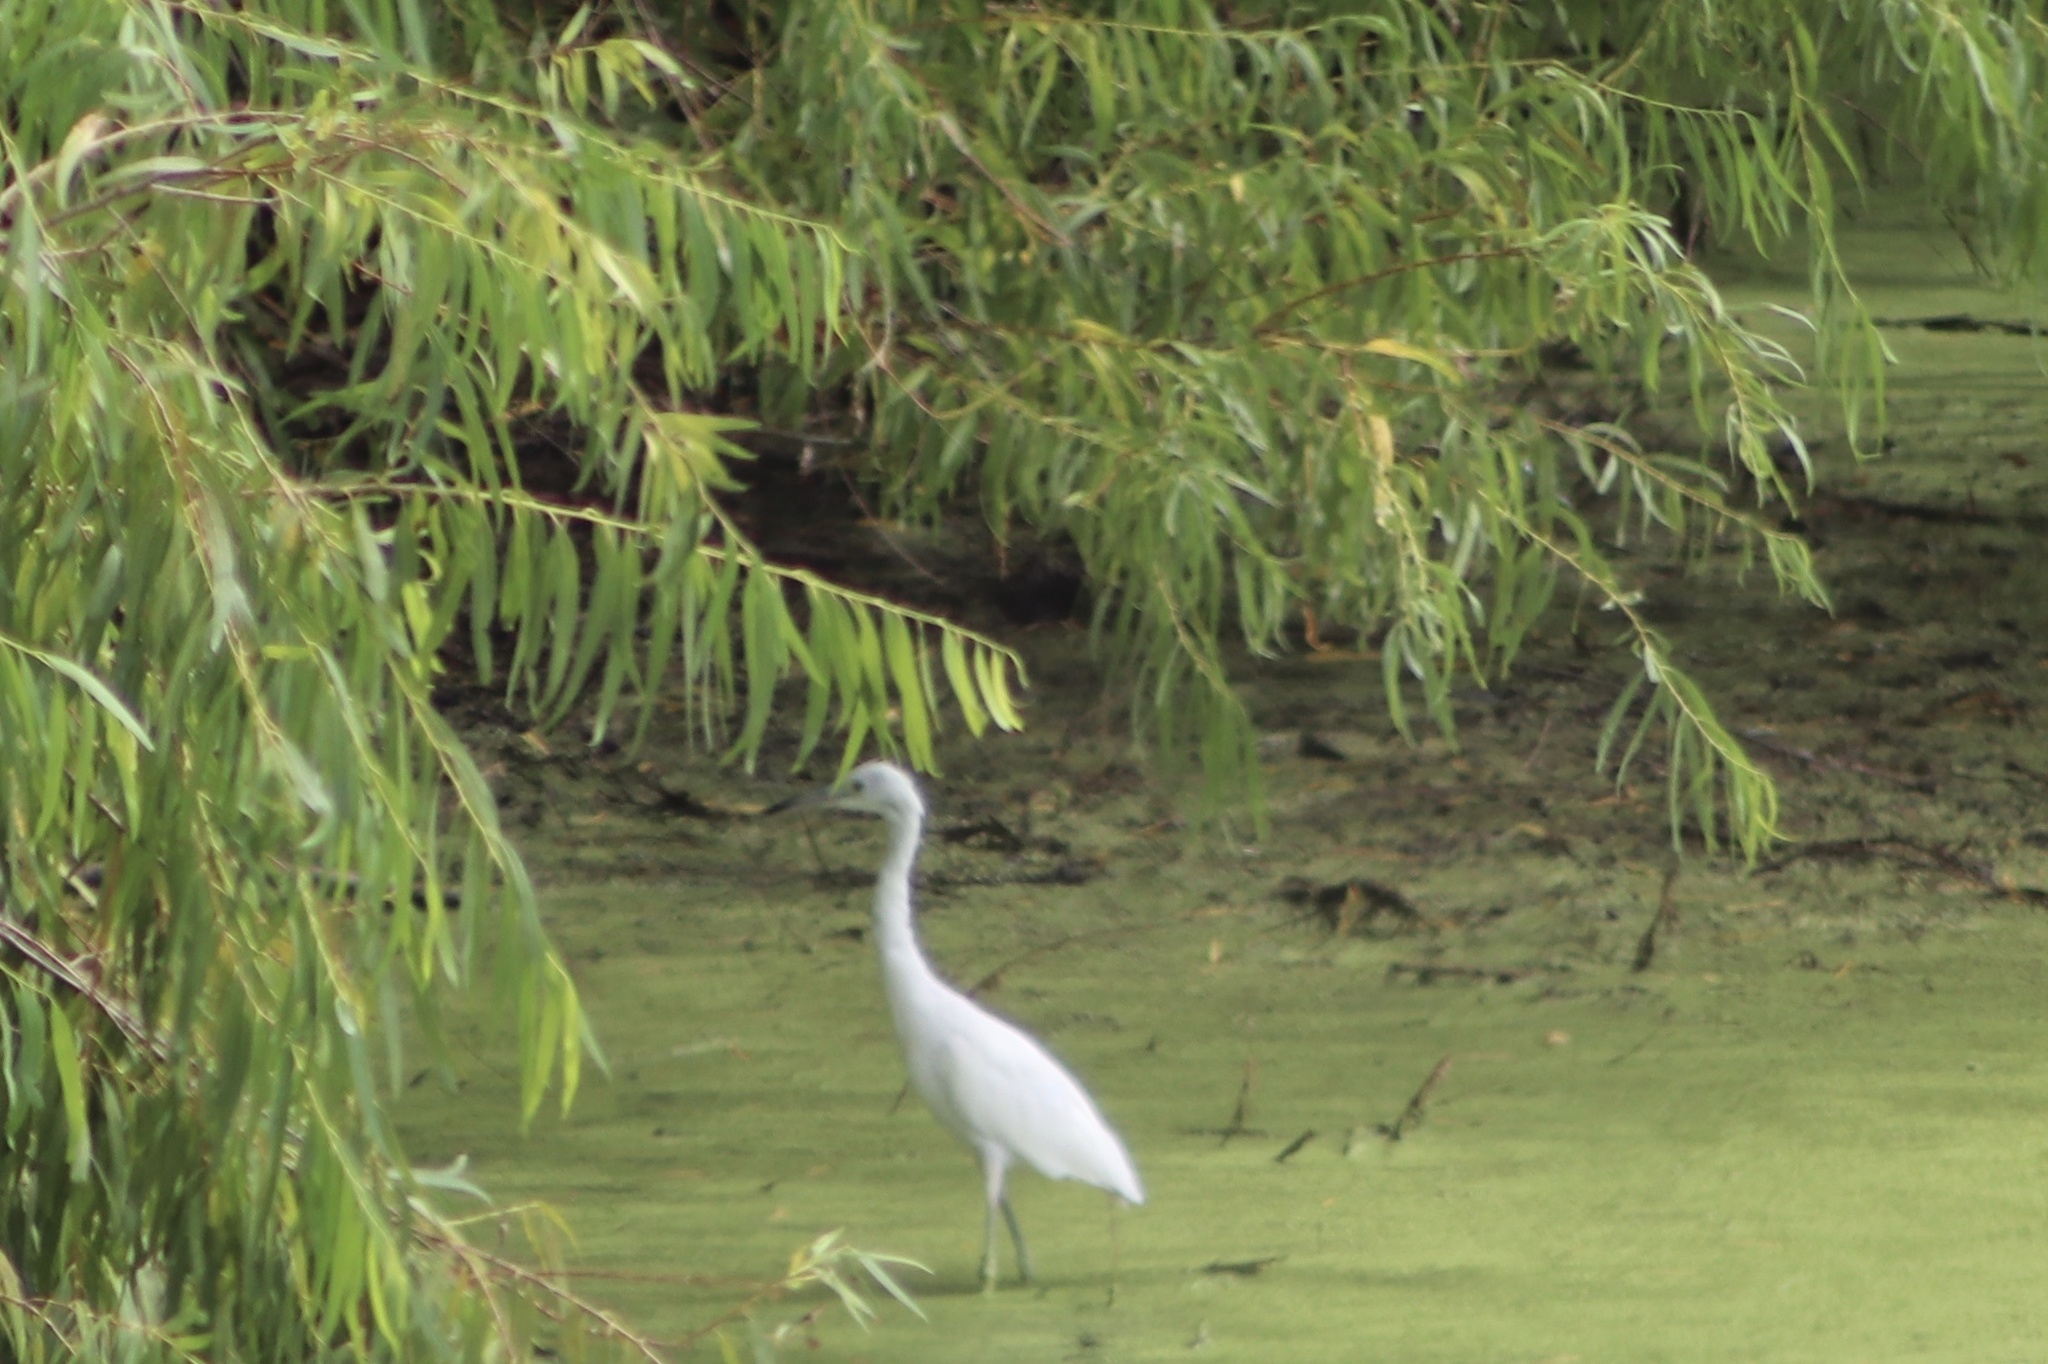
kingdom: Animalia
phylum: Chordata
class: Aves
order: Pelecaniformes
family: Ardeidae
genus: Egretta
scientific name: Egretta caerulea
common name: Little blue heron
